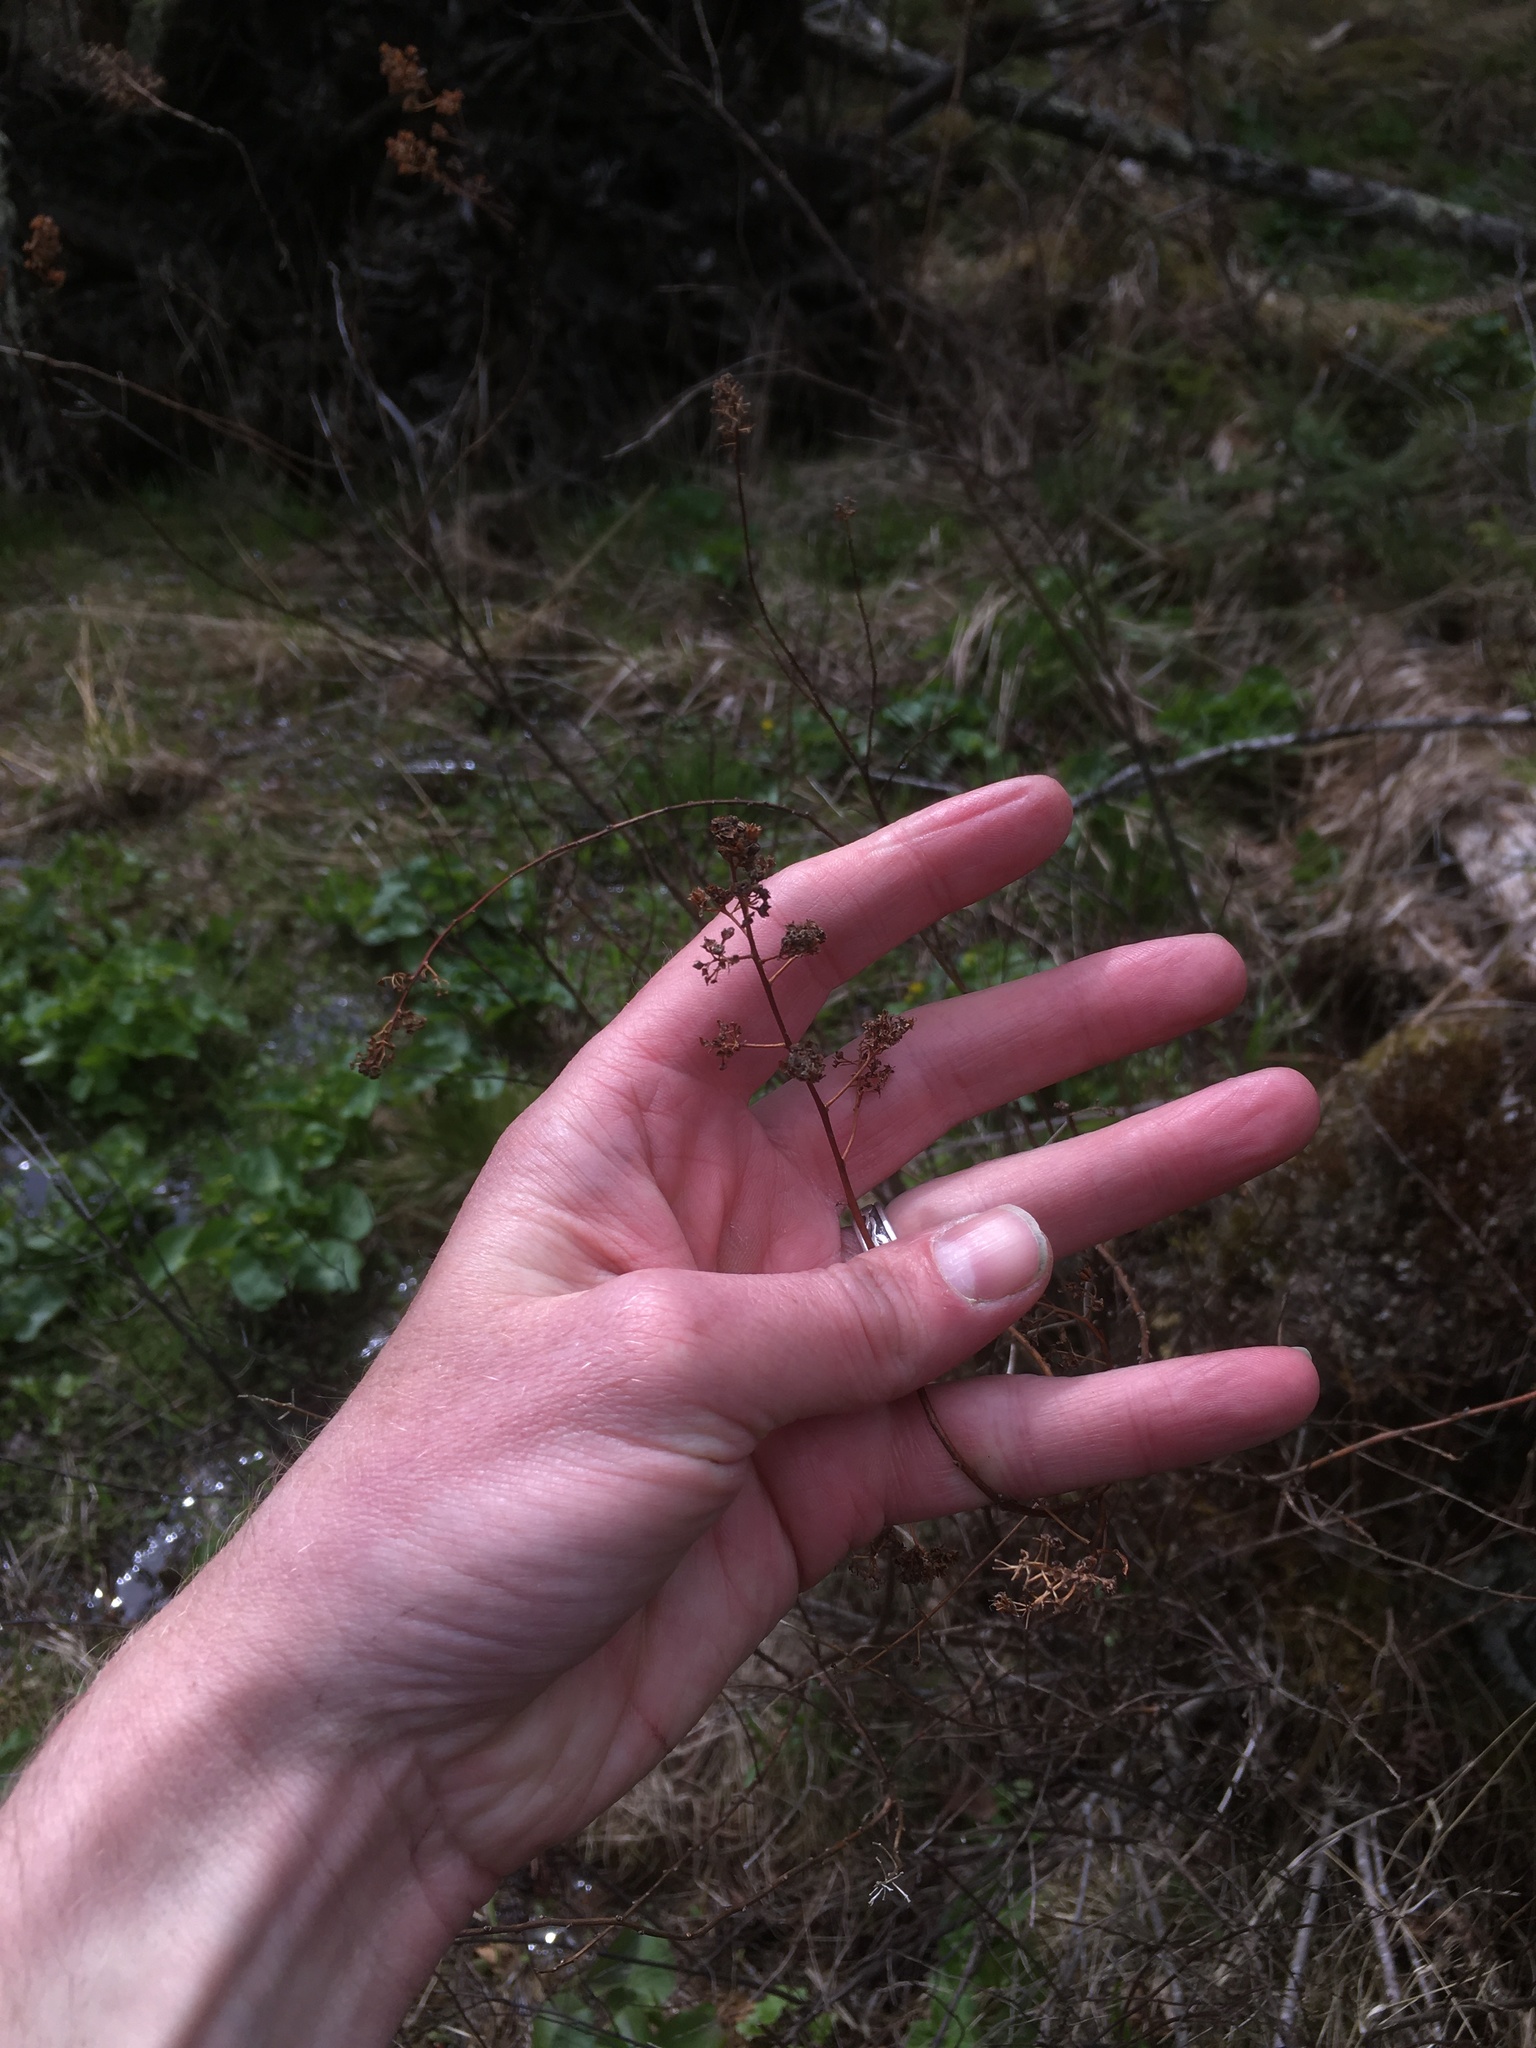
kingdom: Plantae
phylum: Tracheophyta
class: Magnoliopsida
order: Rosales
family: Rosaceae
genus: Spiraea
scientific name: Spiraea alba
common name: Pale bridewort
